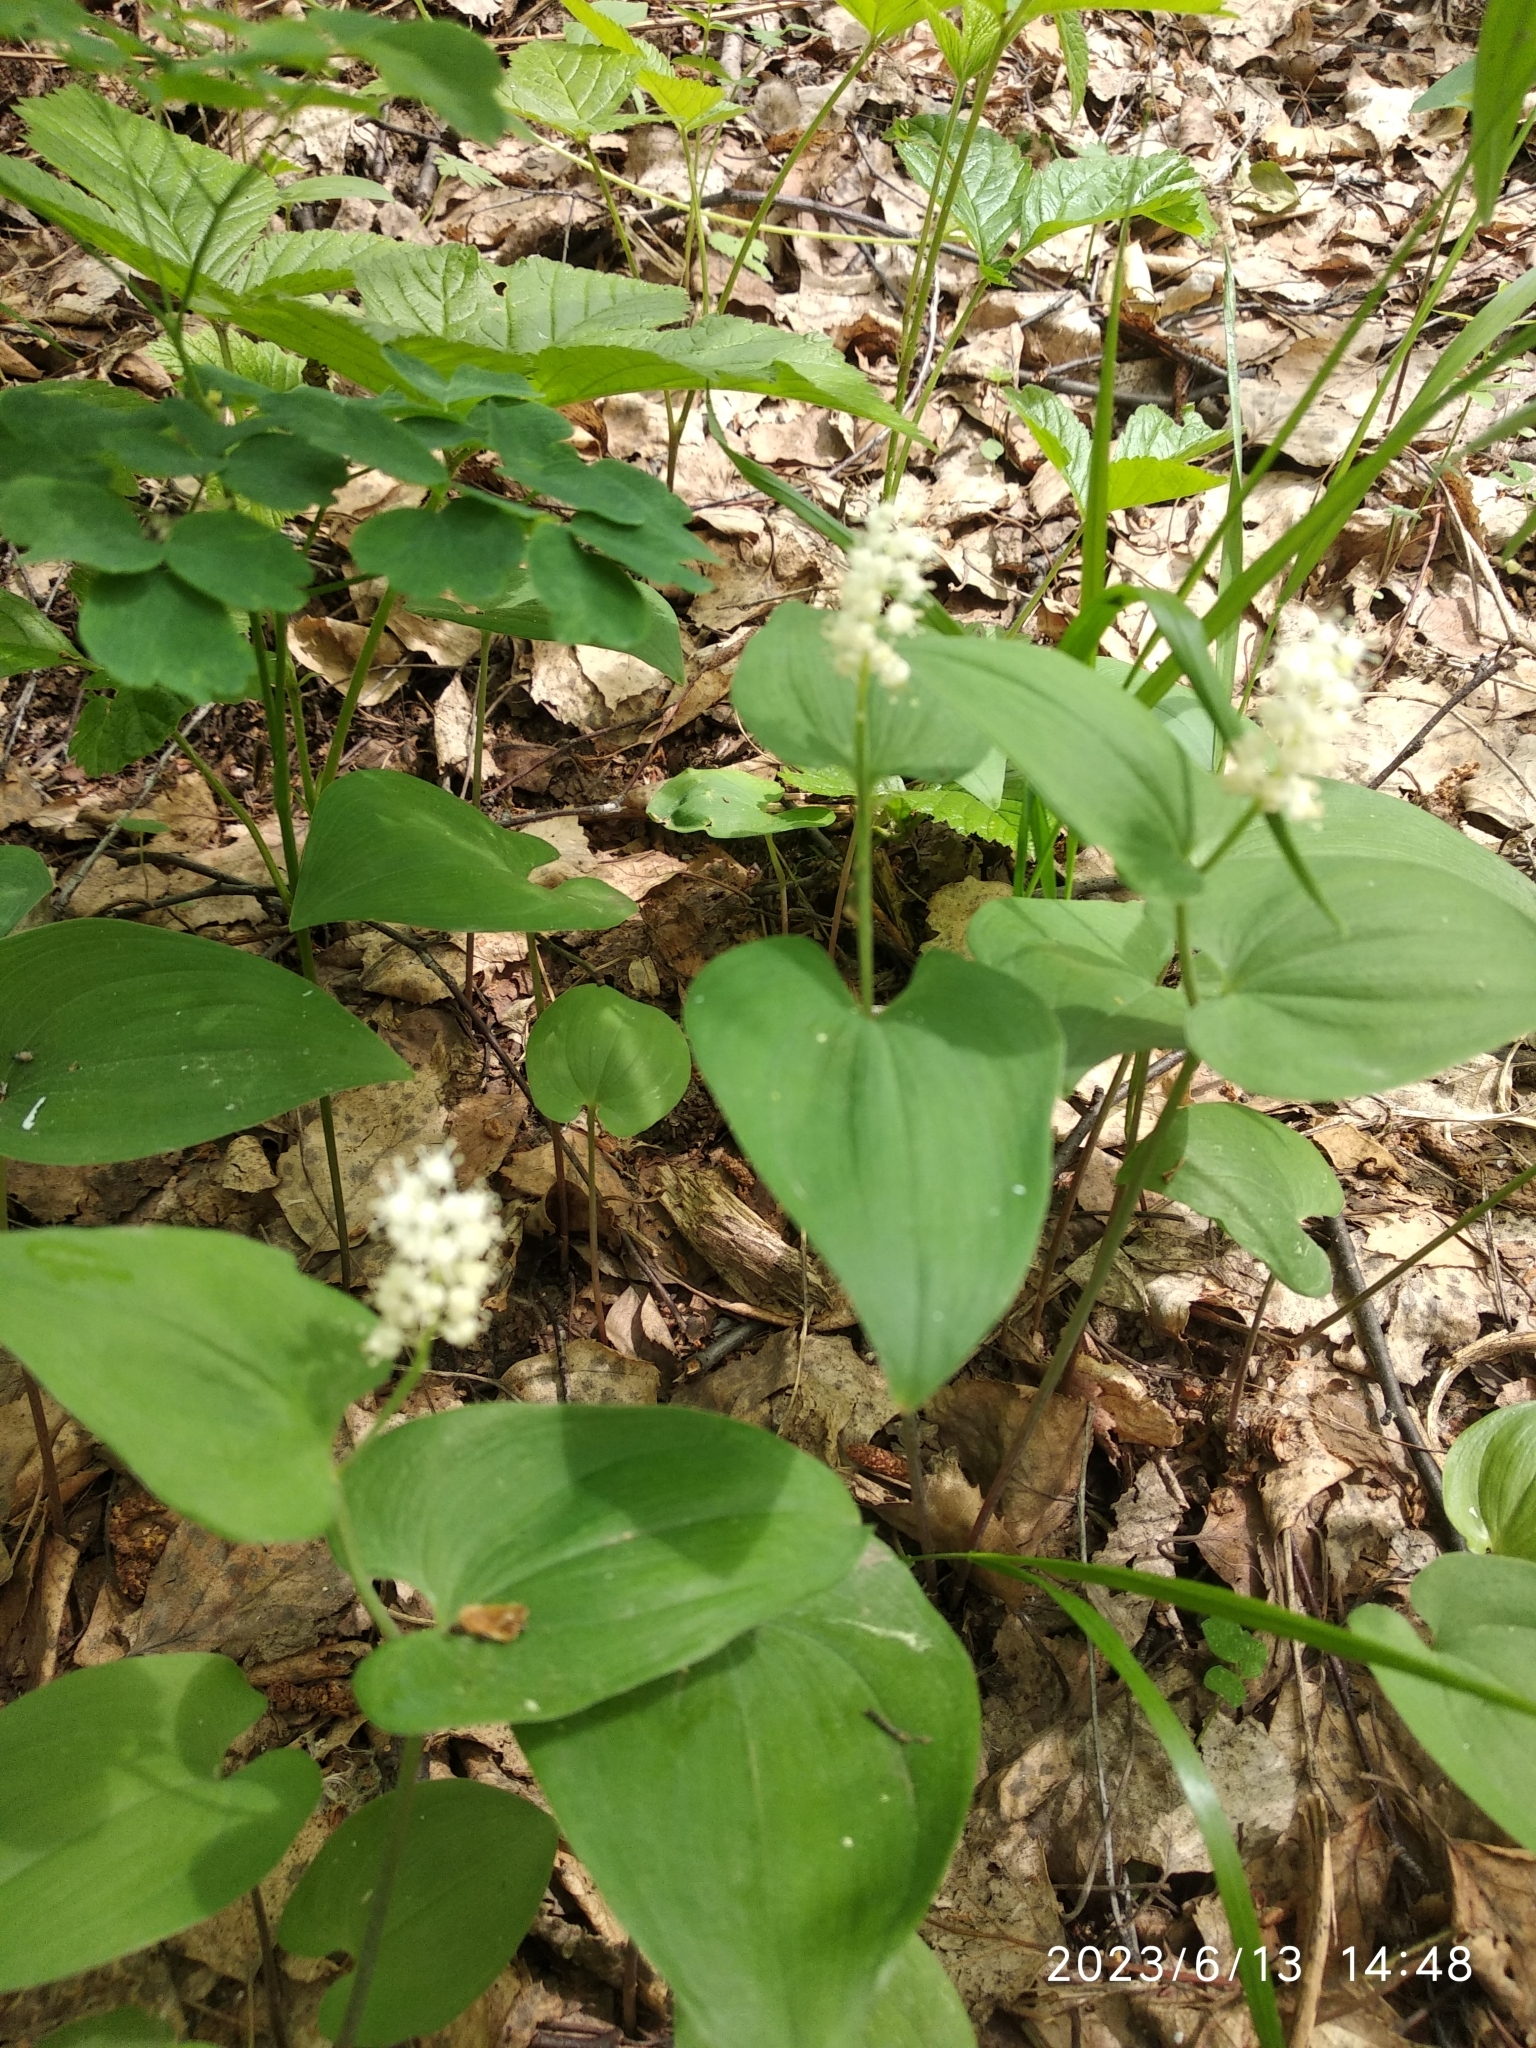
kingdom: Plantae
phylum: Tracheophyta
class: Liliopsida
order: Asparagales
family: Asparagaceae
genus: Maianthemum
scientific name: Maianthemum bifolium
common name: May lily
